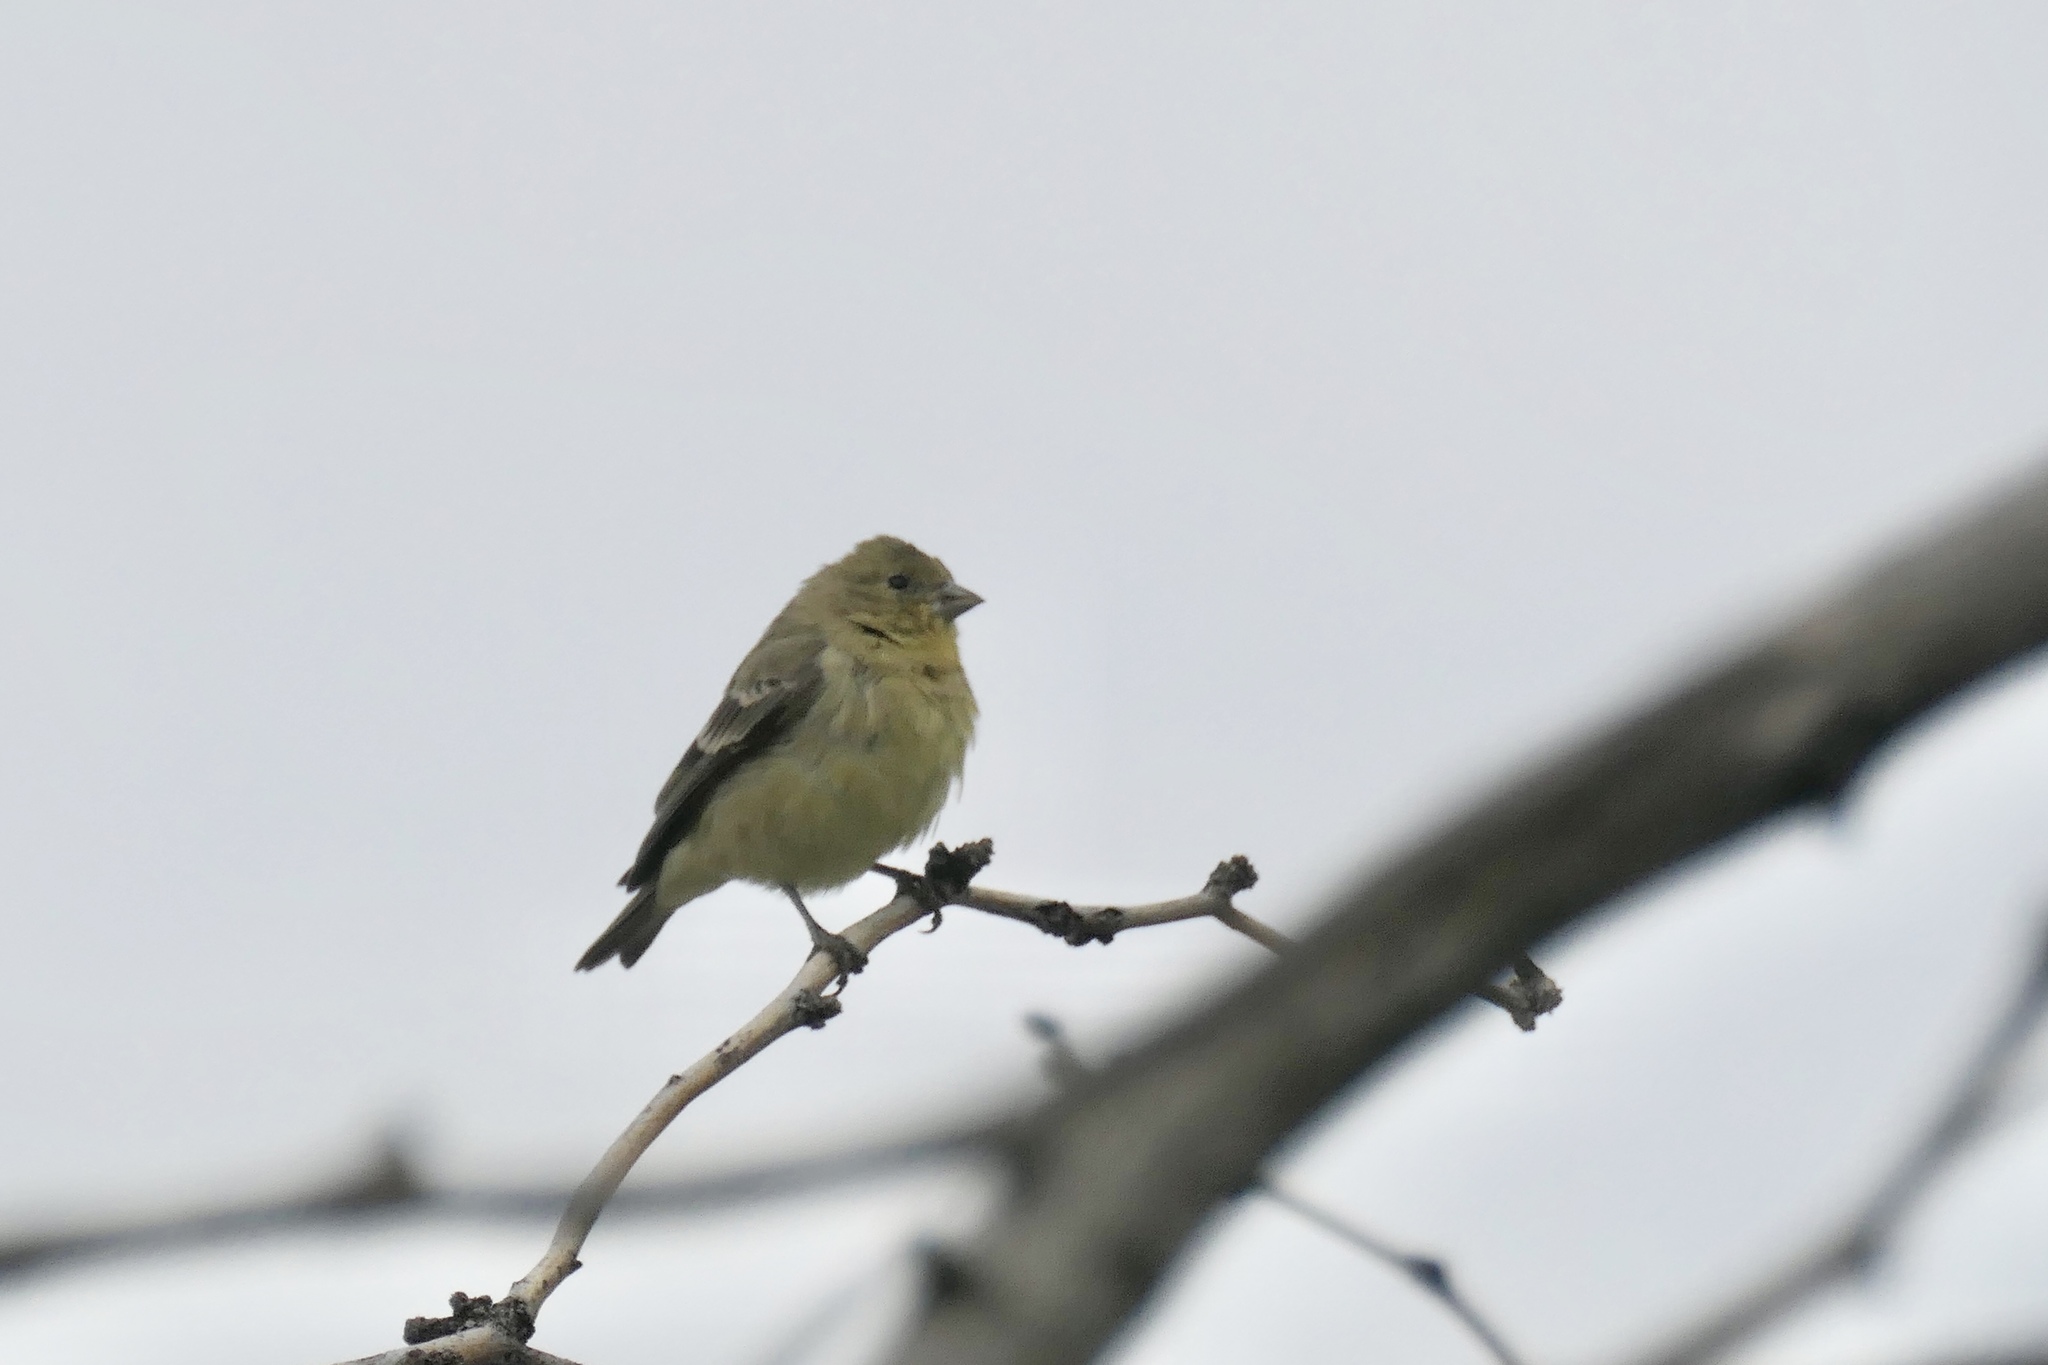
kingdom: Animalia
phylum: Chordata
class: Aves
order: Passeriformes
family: Fringillidae
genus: Spinus
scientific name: Spinus psaltria
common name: Lesser goldfinch
